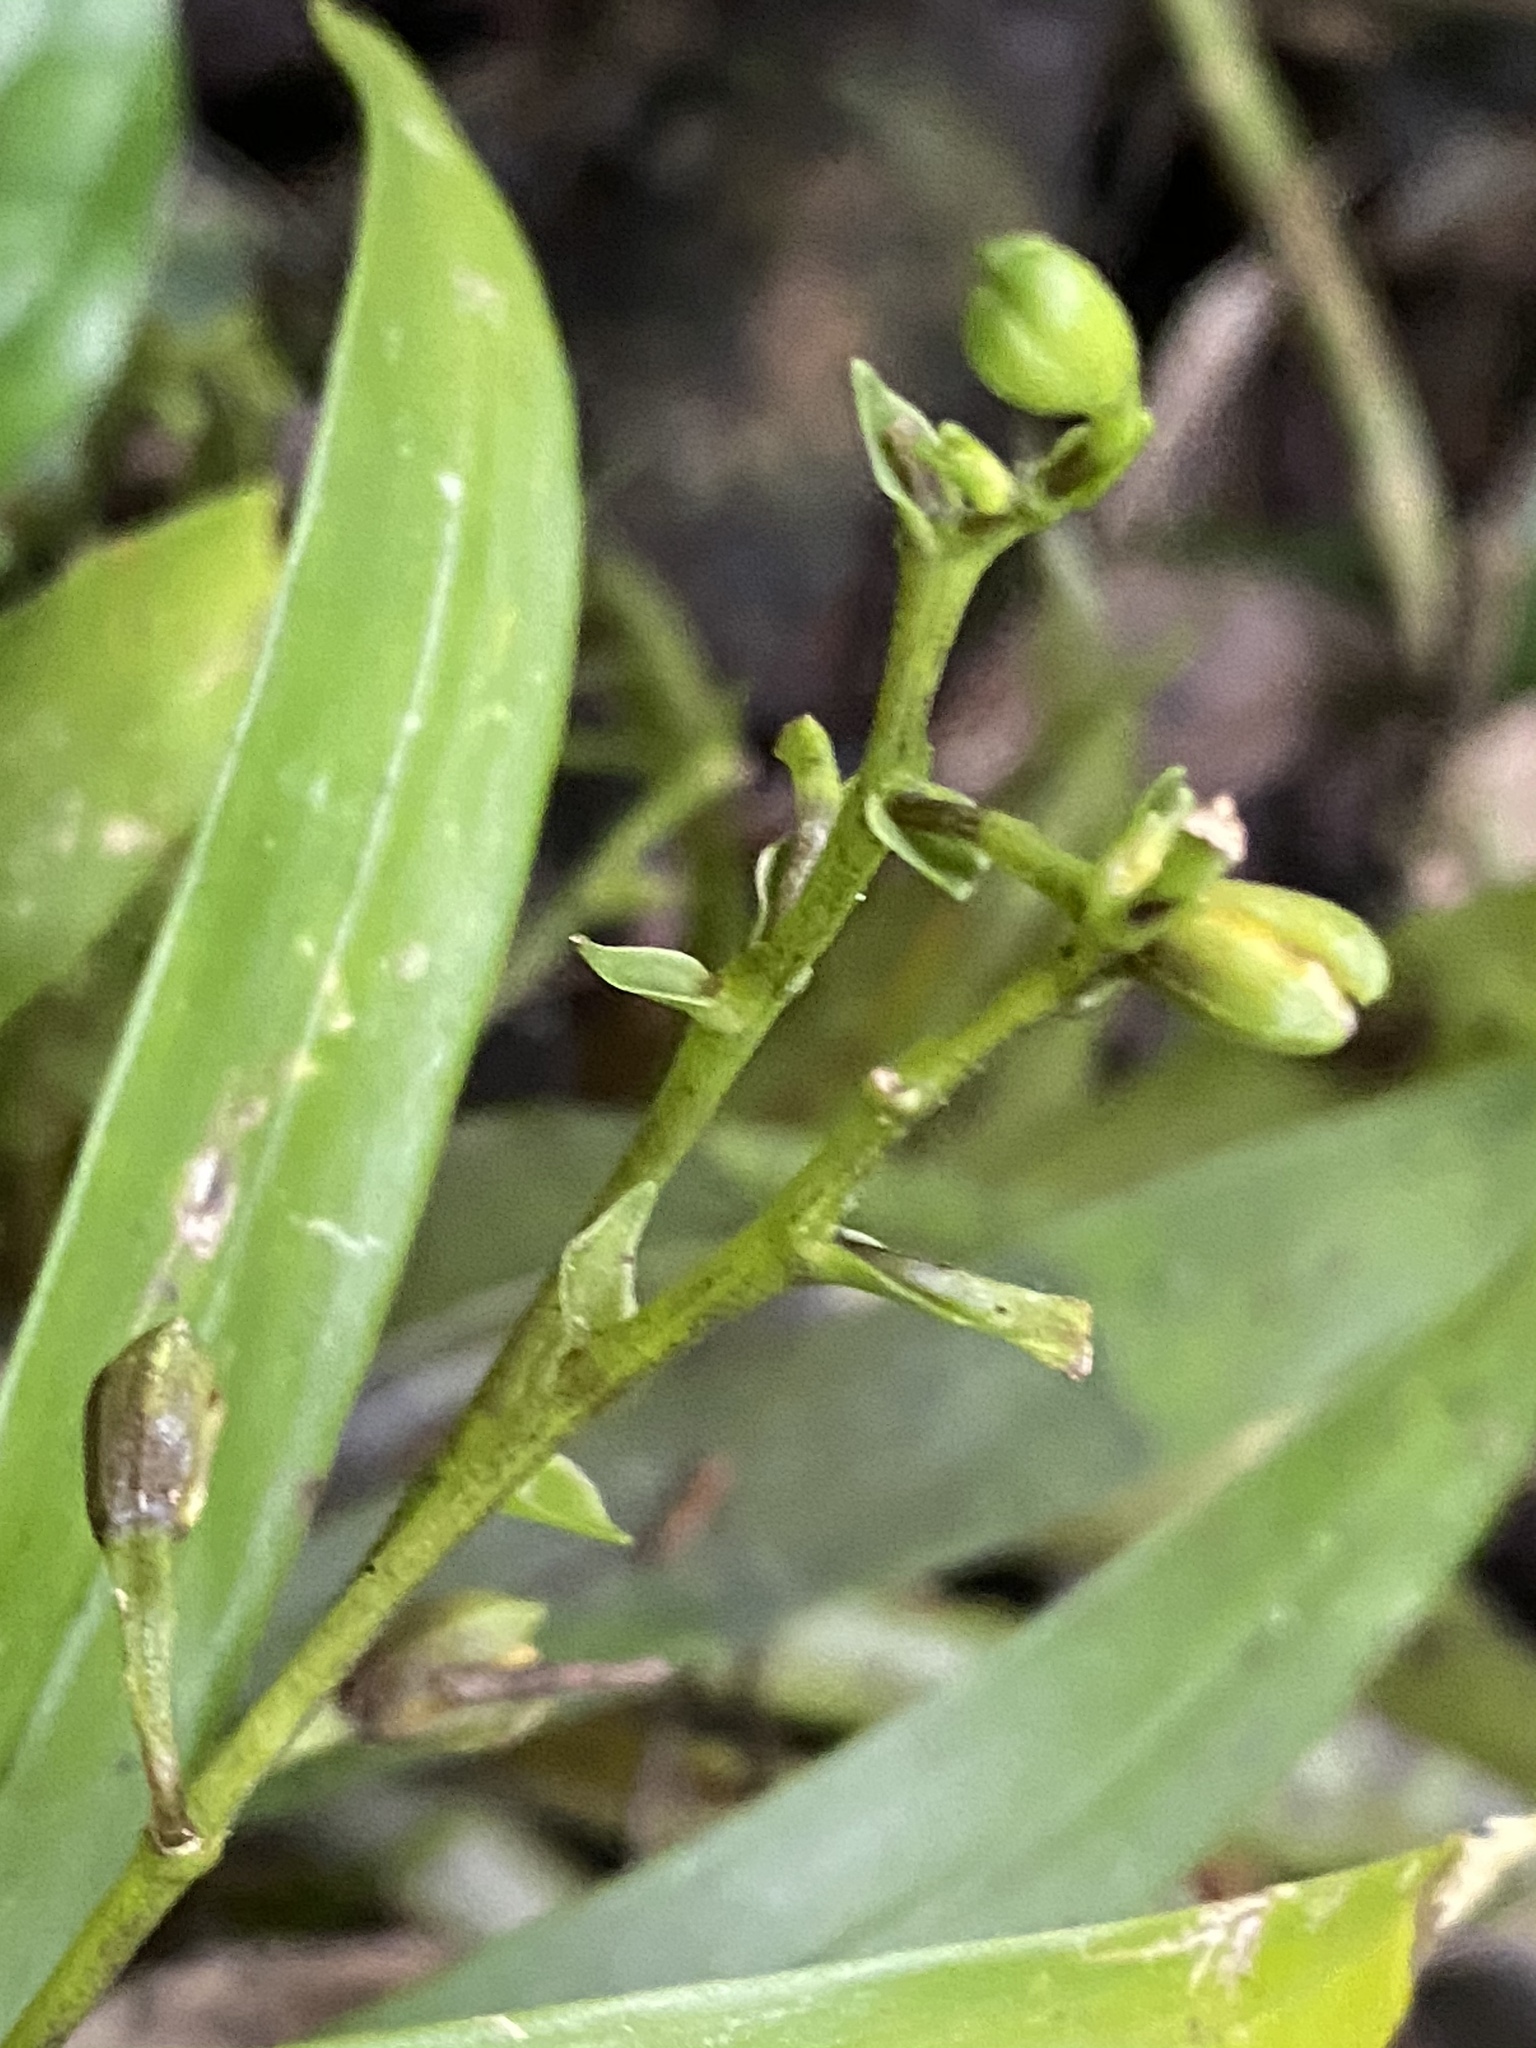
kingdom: Plantae
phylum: Tracheophyta
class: Liliopsida
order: Asparagales
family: Orchidaceae
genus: Prosthechea
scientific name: Prosthechea ochracea
